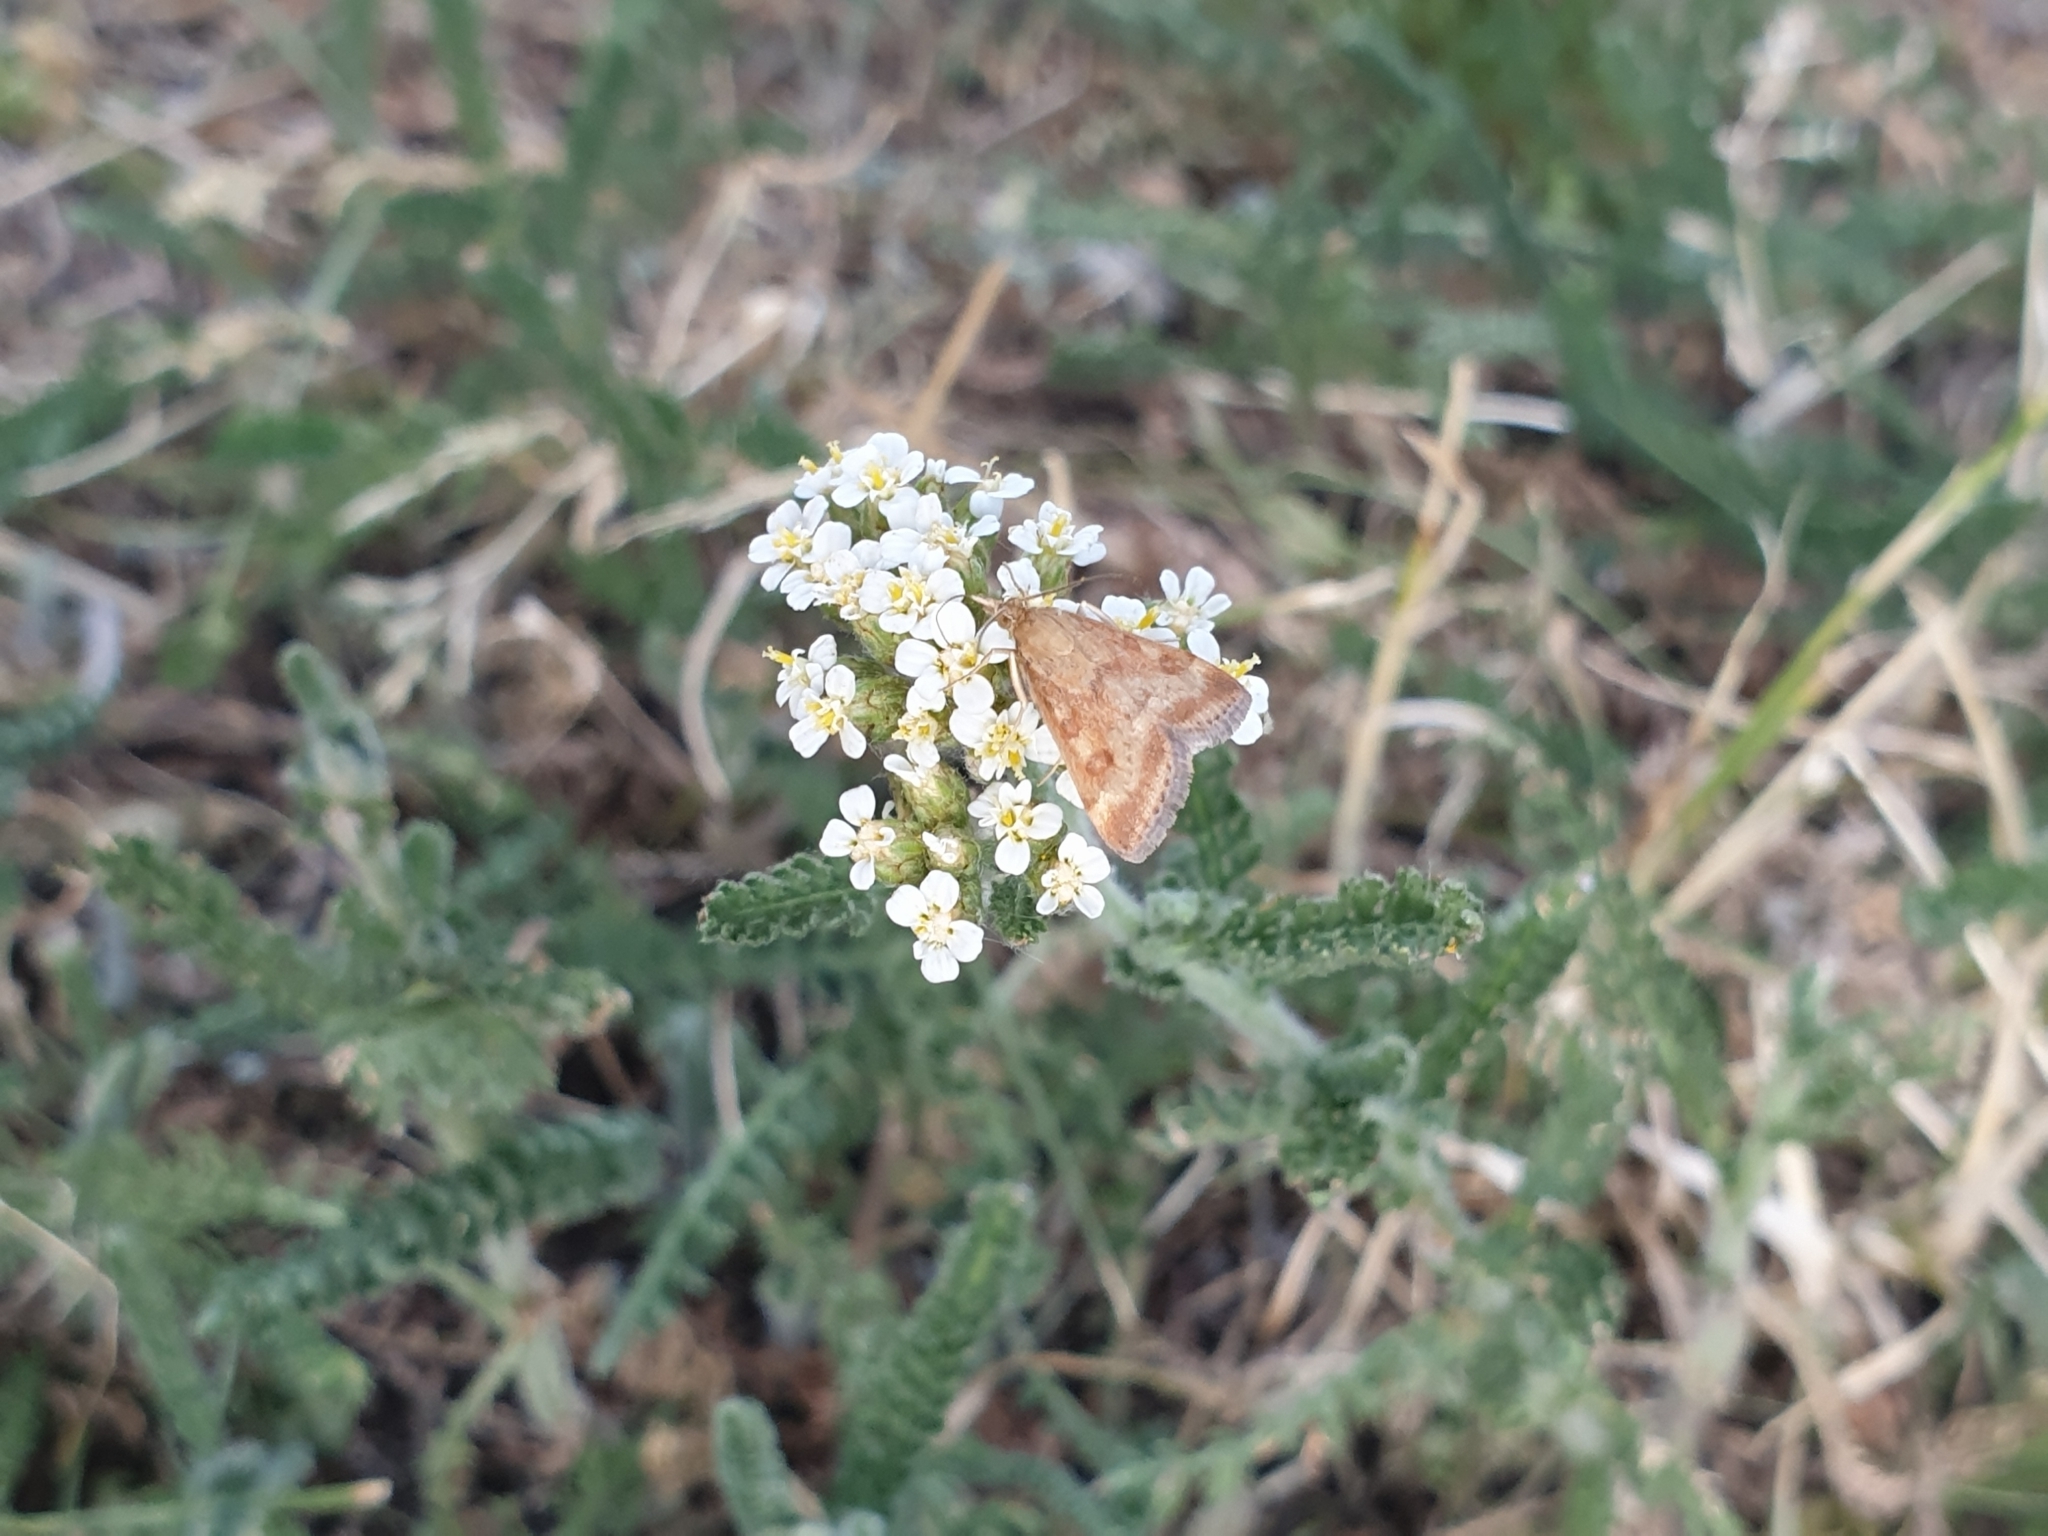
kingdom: Animalia
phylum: Arthropoda
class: Insecta
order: Lepidoptera
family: Crambidae
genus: Pyrausta
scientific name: Pyrausta despicata
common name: Straw-barred pearl
